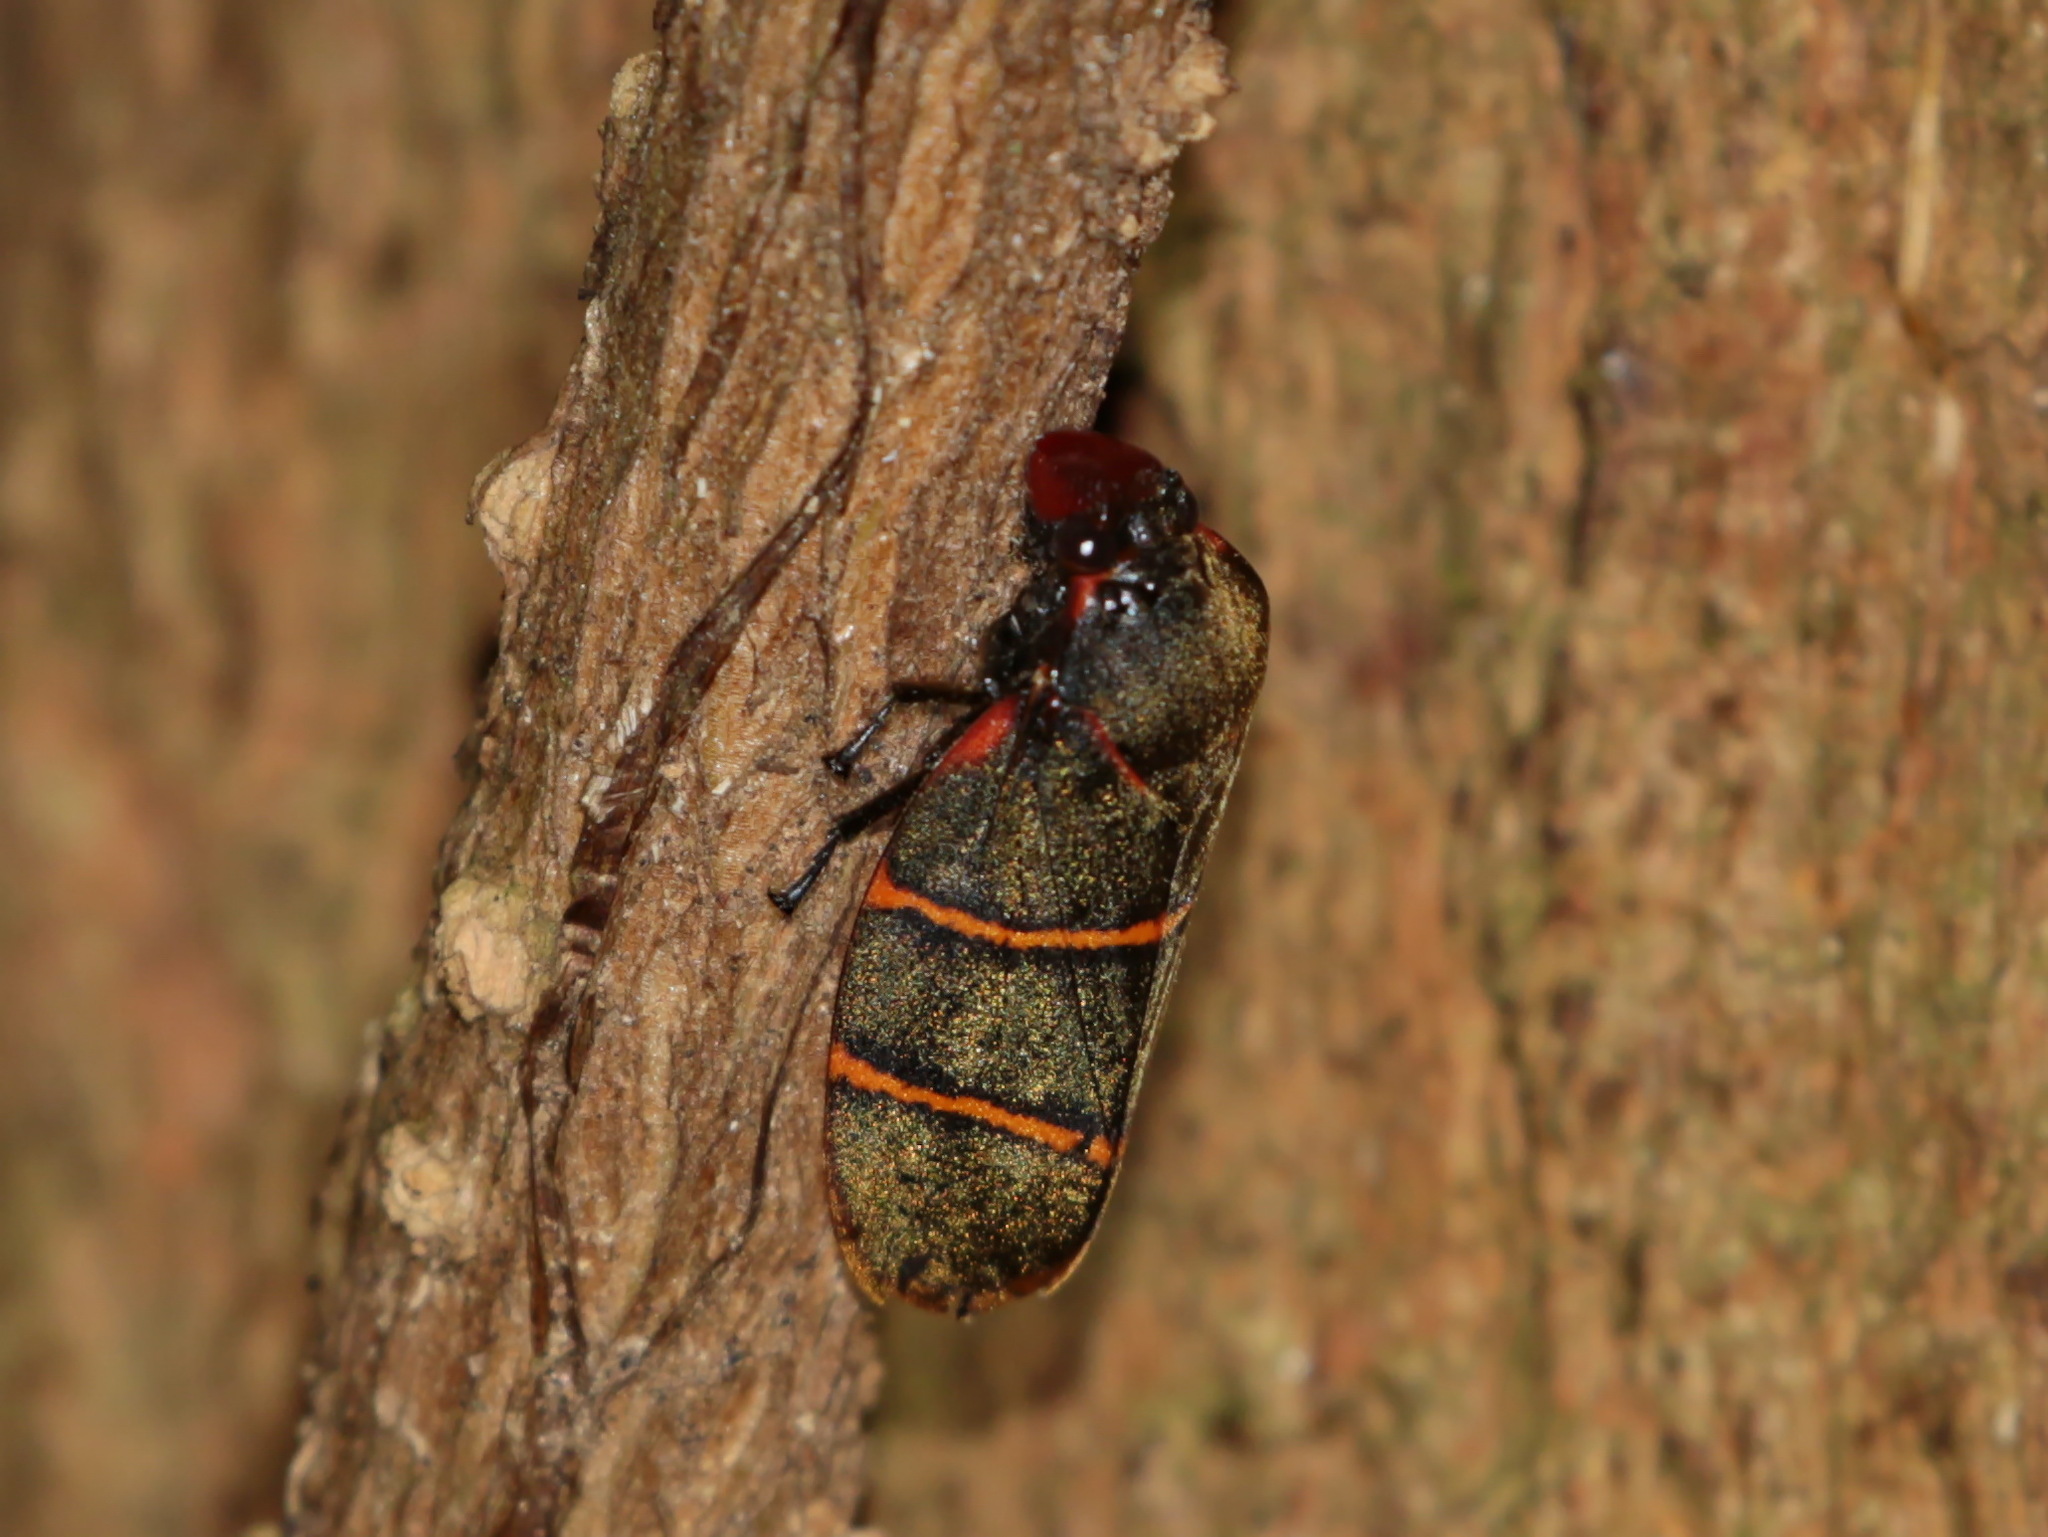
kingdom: Animalia
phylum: Arthropoda
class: Insecta
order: Hemiptera
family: Cercopidae
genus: Phymatostetha
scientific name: Phymatostetha taeniata
